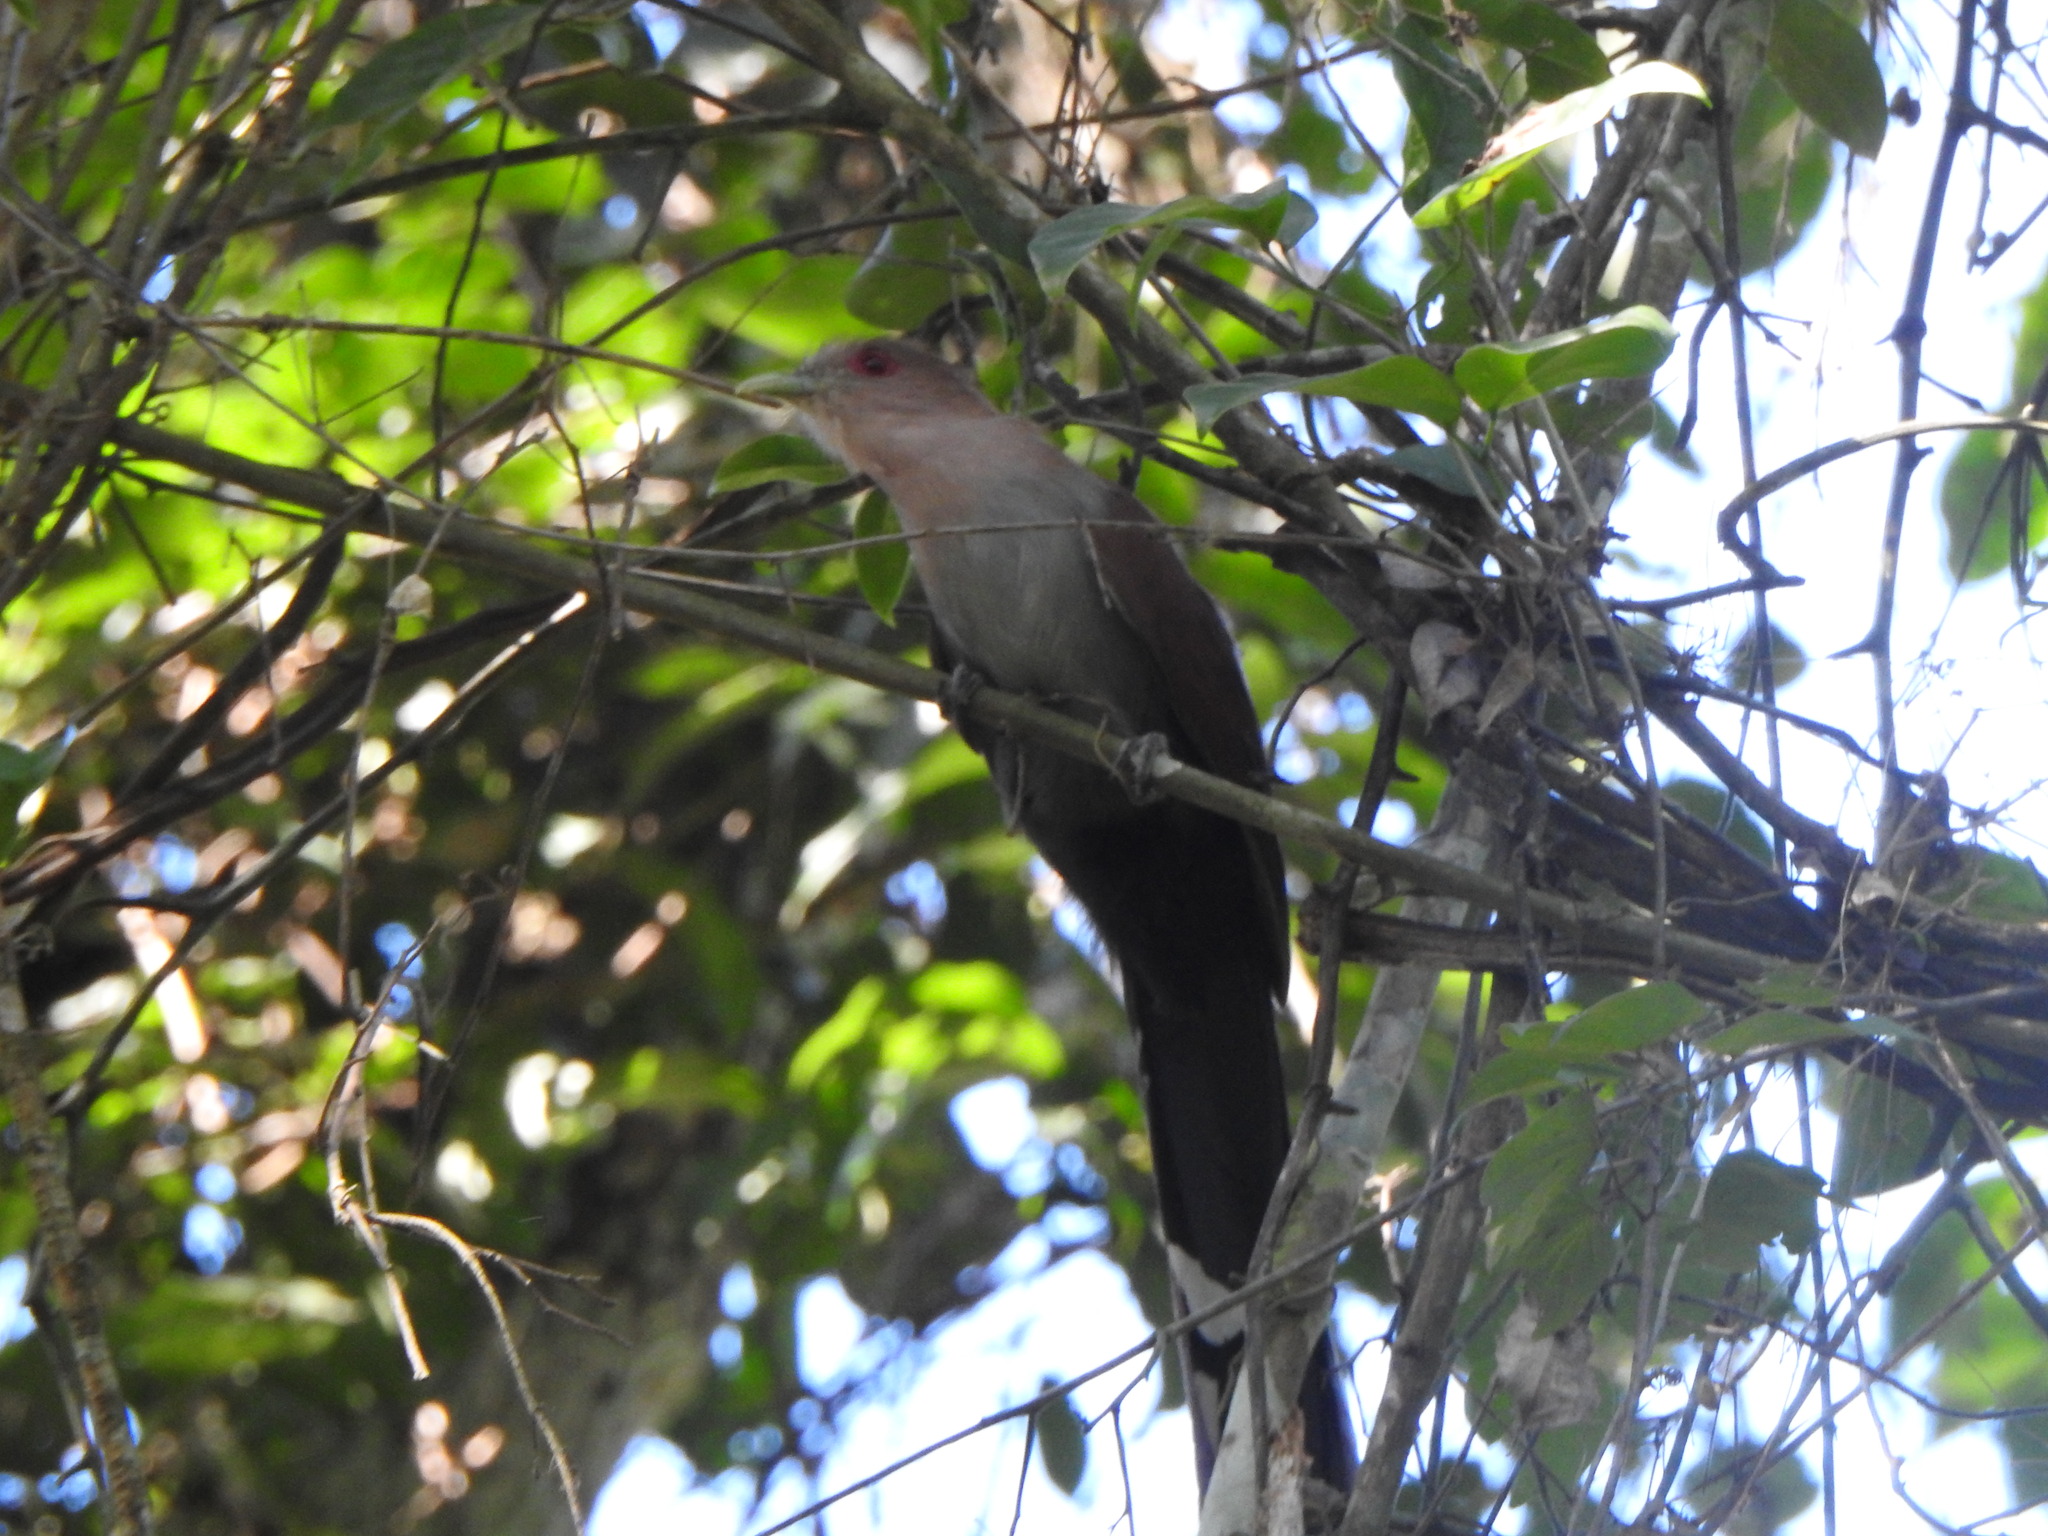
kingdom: Animalia
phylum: Chordata
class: Aves
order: Cuculiformes
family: Cuculidae
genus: Piaya
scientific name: Piaya cayana
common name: Squirrel cuckoo
